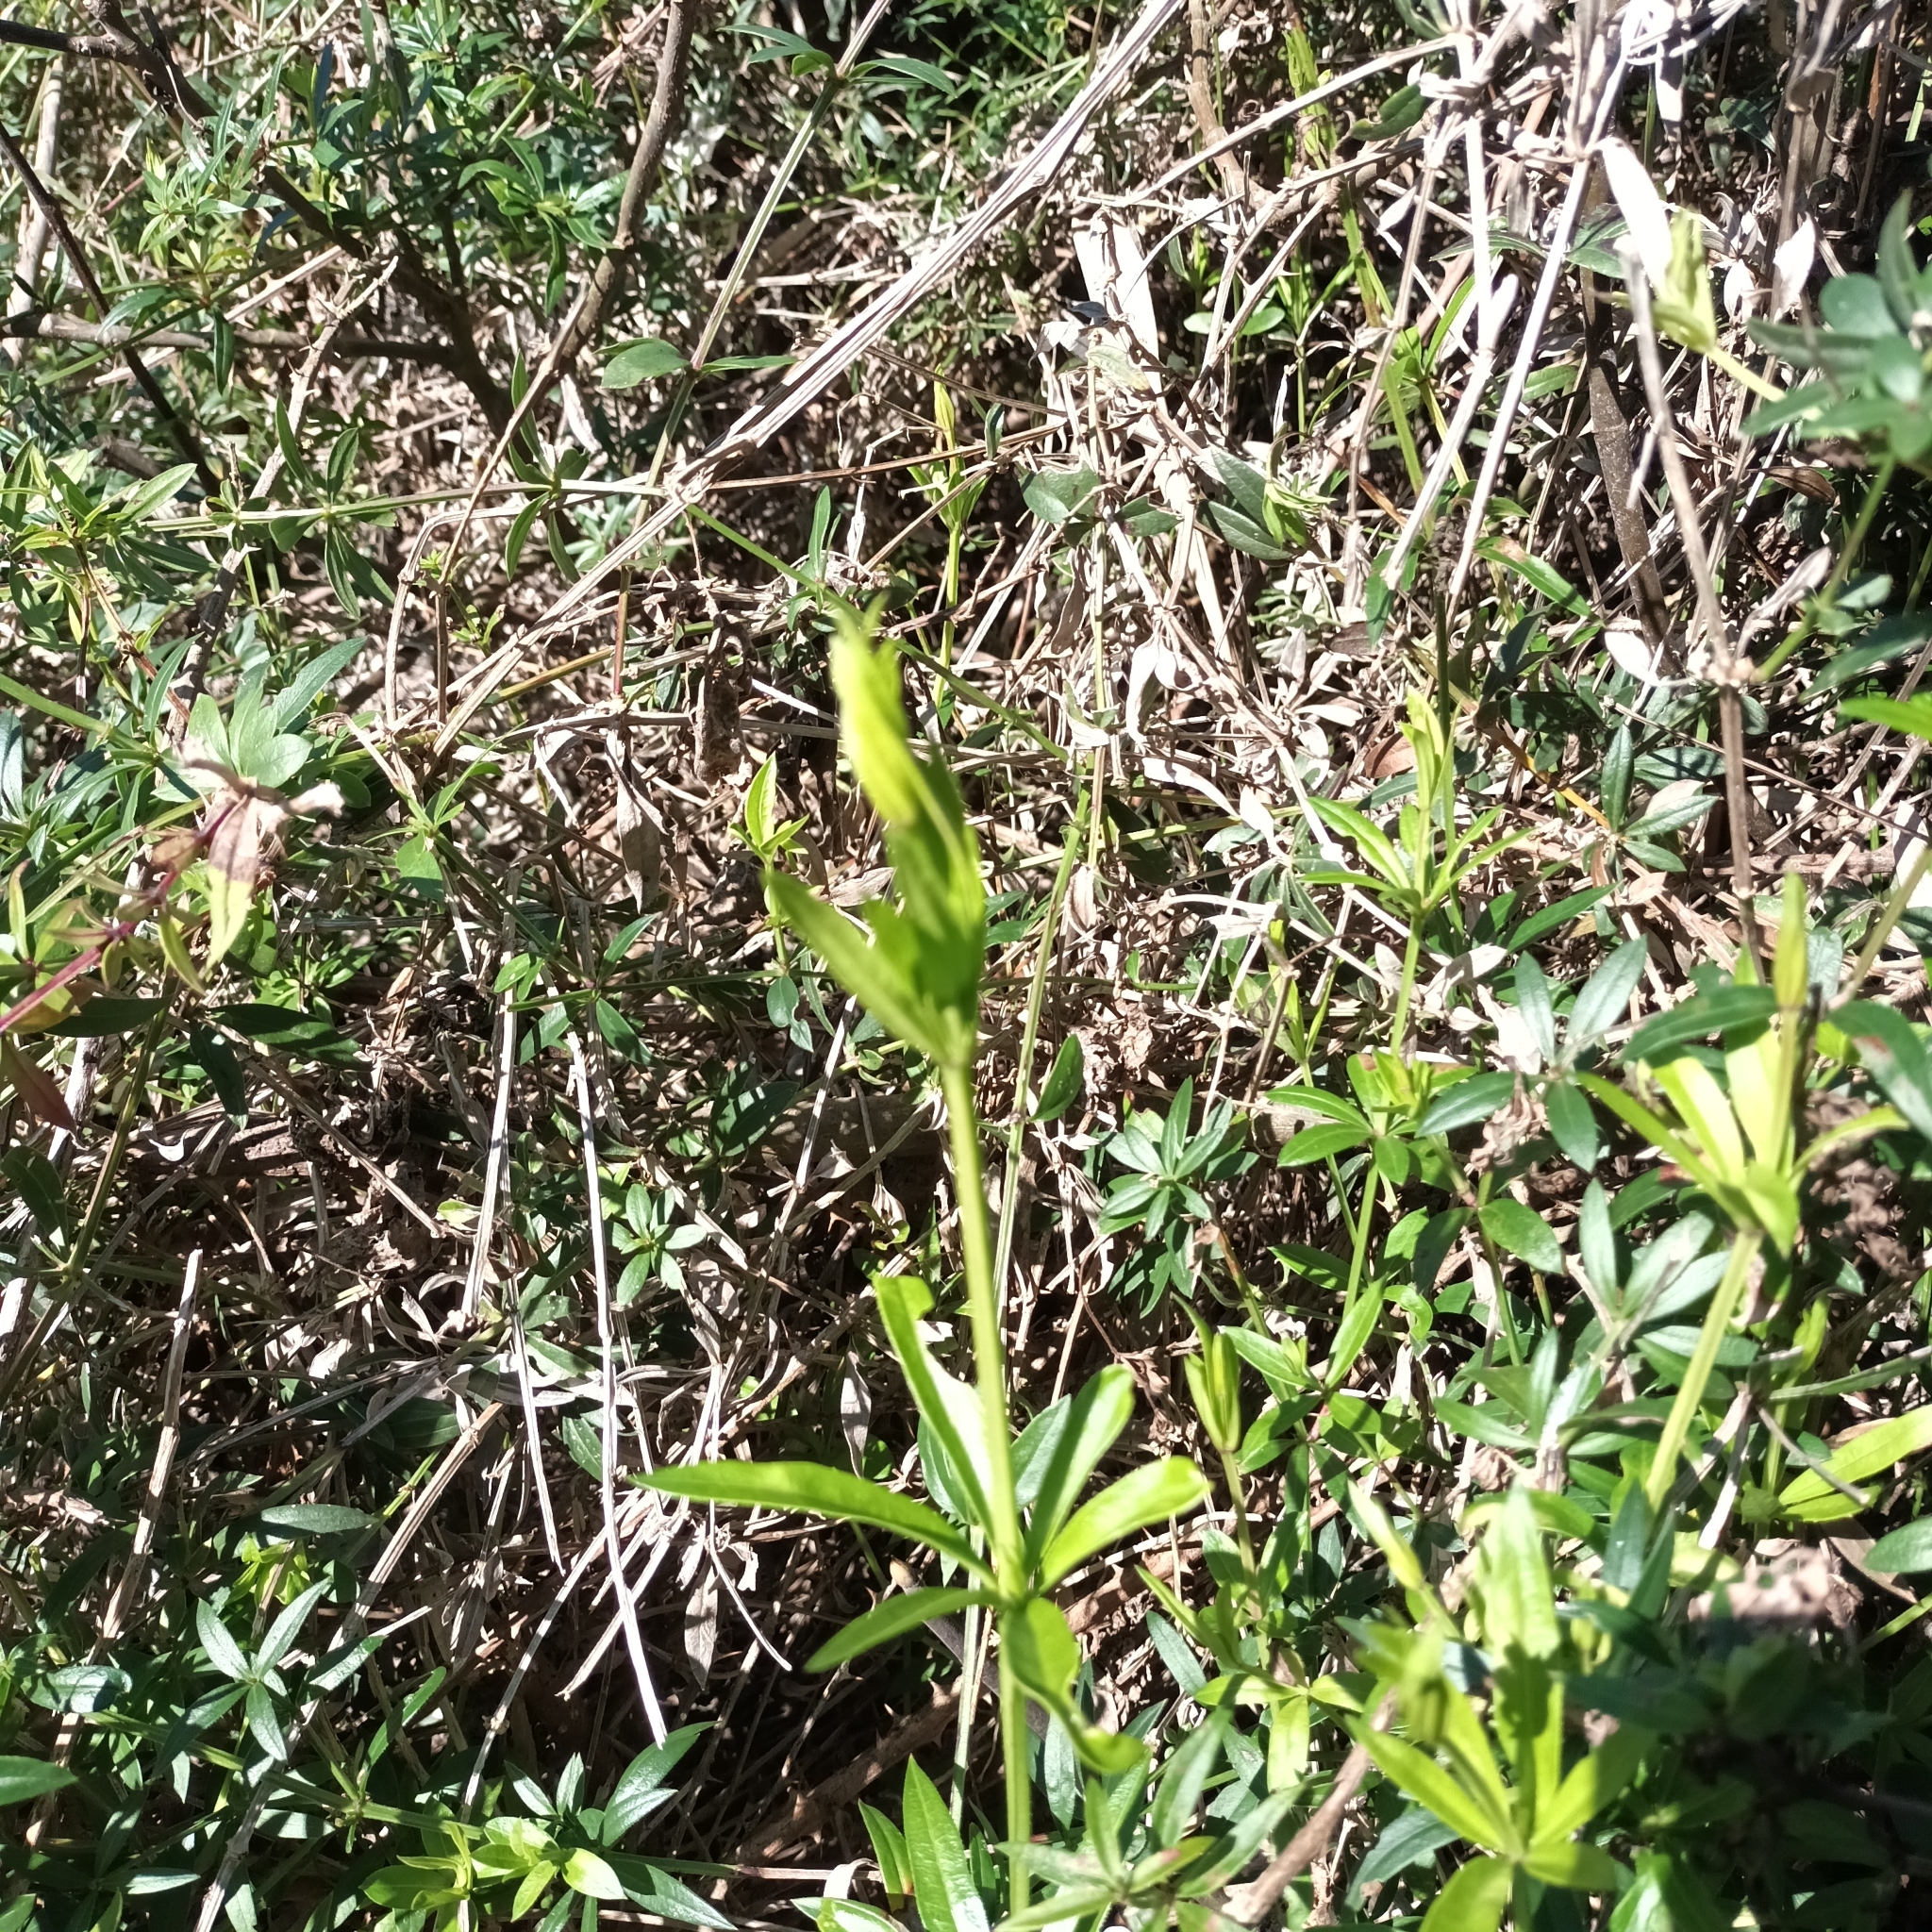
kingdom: Plantae
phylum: Tracheophyta
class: Magnoliopsida
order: Gentianales
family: Rubiaceae
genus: Rubia
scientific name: Rubia peregrina
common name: Wild madder
